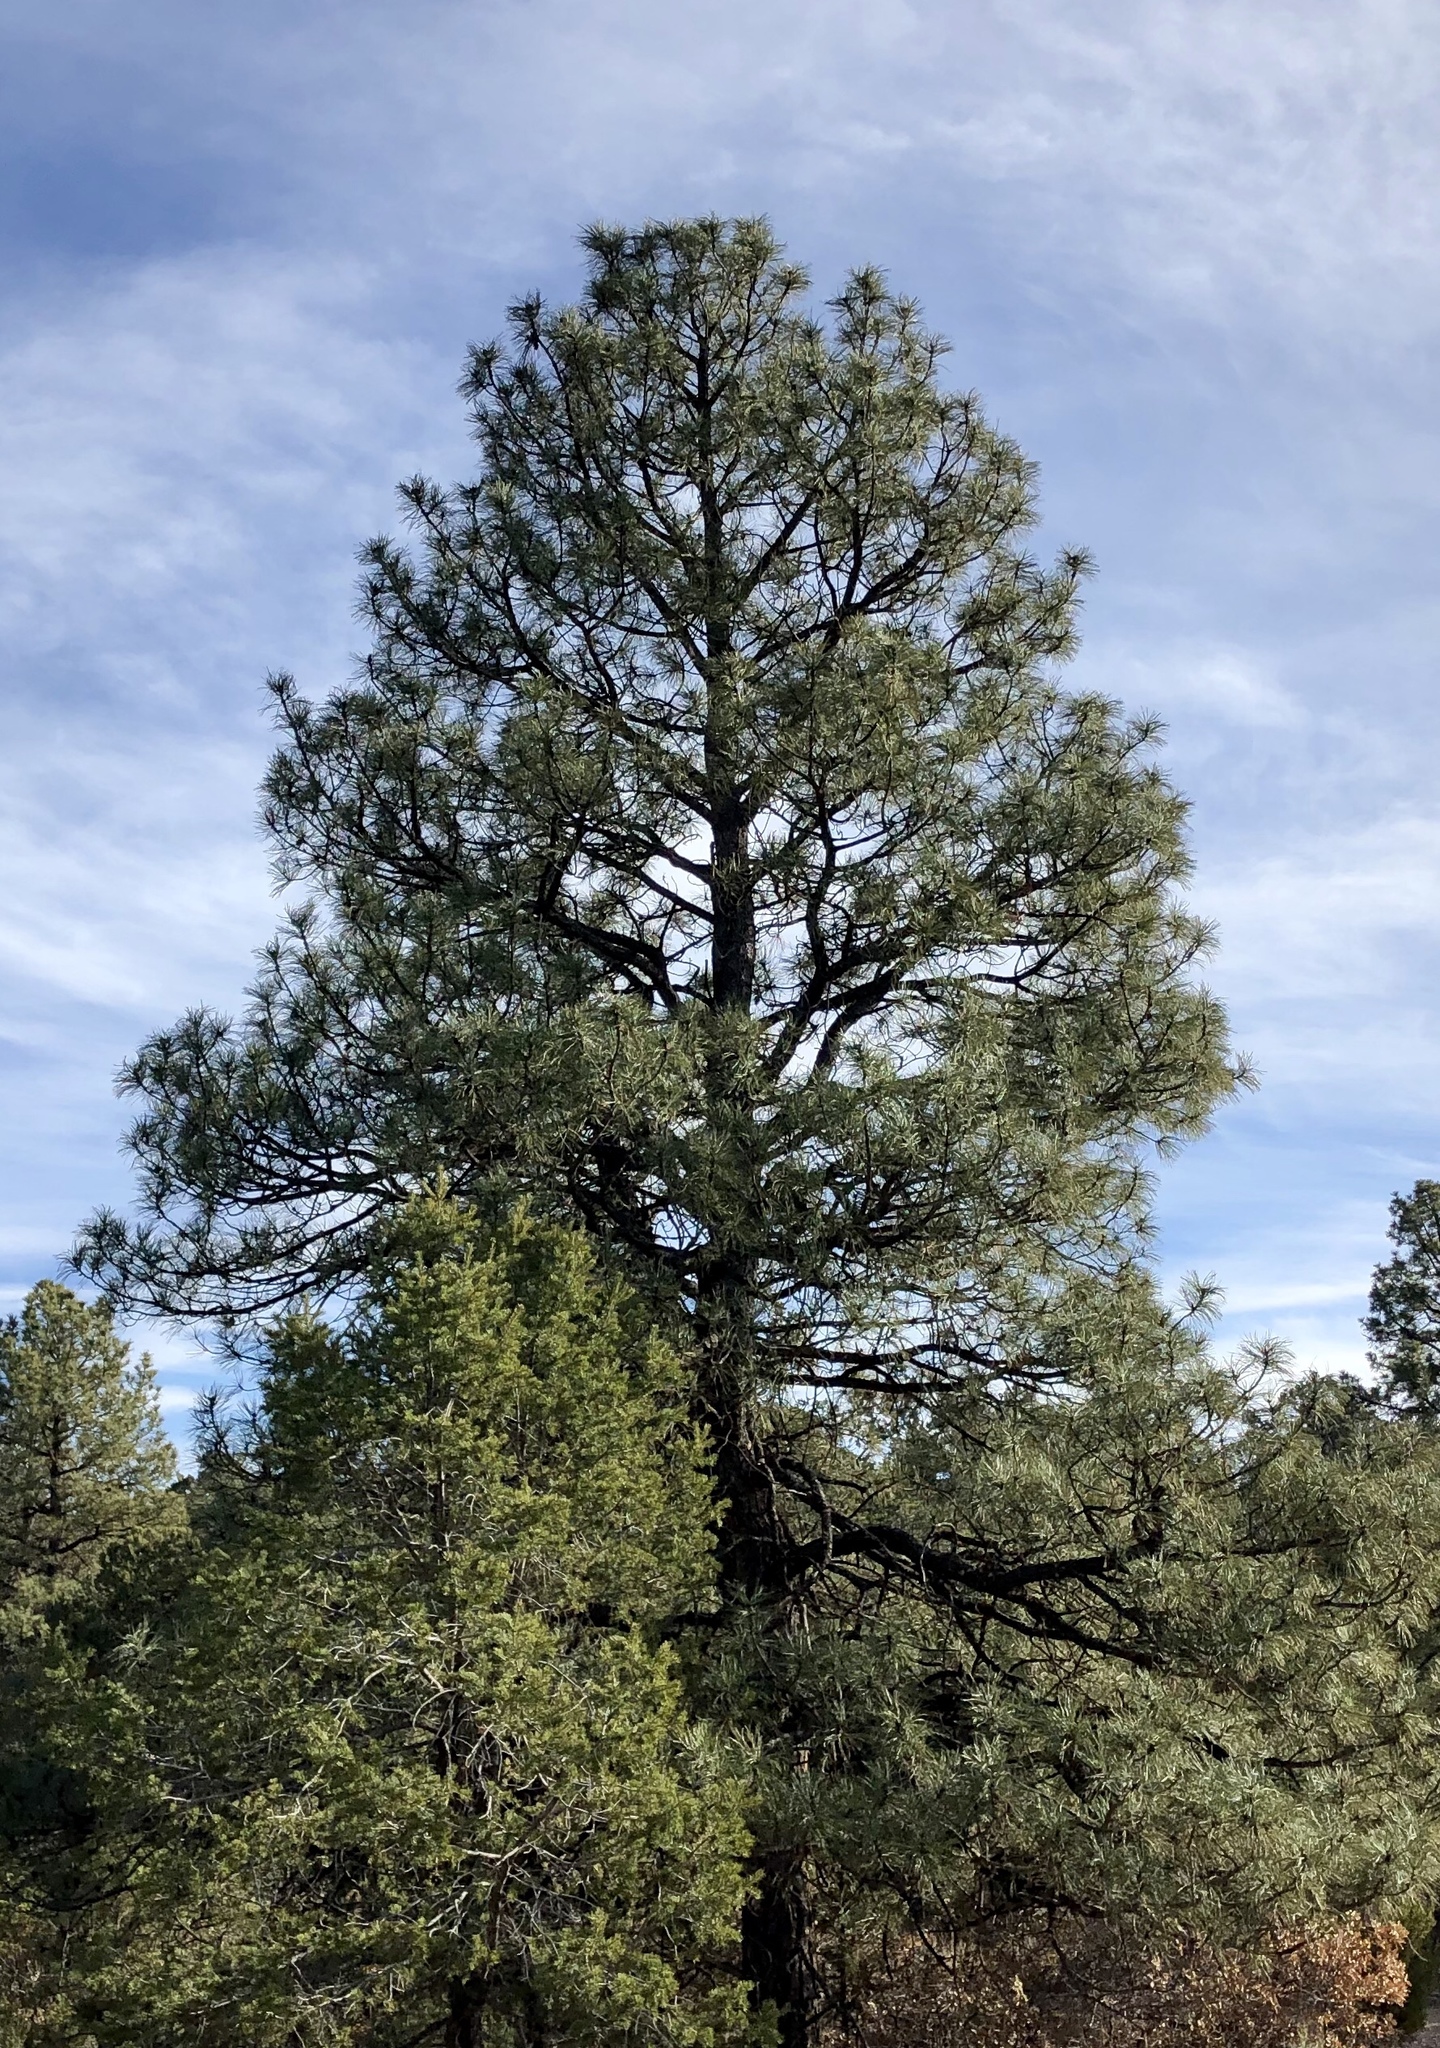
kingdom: Plantae
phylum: Tracheophyta
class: Pinopsida
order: Pinales
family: Pinaceae
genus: Pinus
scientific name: Pinus ponderosa
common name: Western yellow-pine
